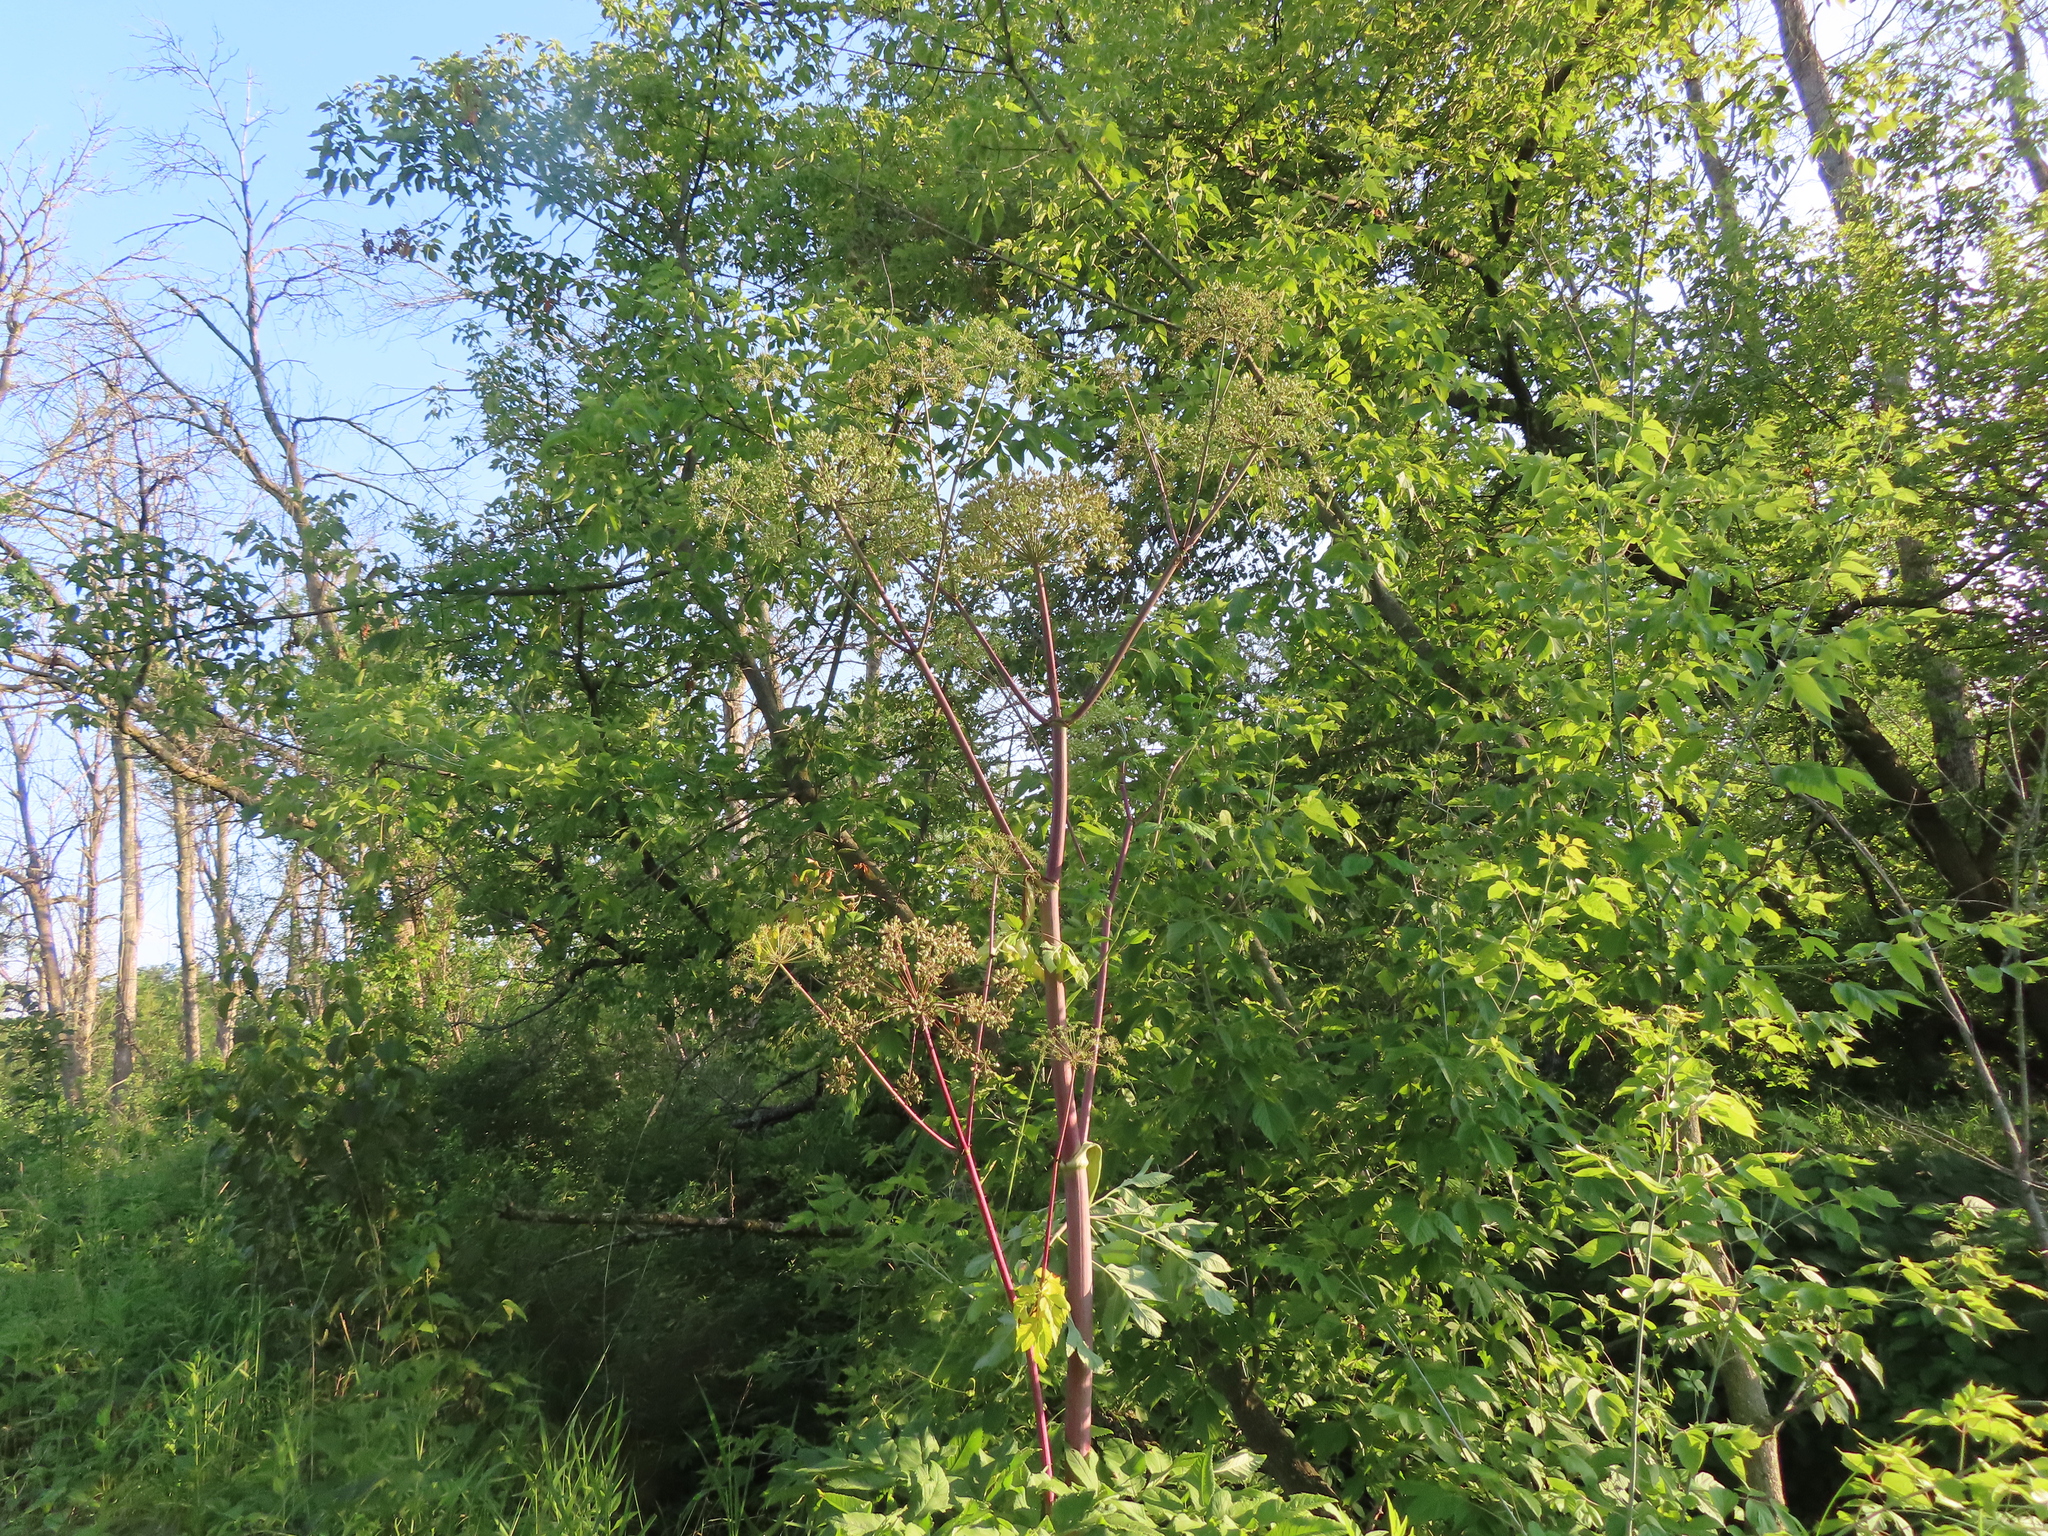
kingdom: Plantae
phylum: Tracheophyta
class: Magnoliopsida
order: Apiales
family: Apiaceae
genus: Angelica
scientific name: Angelica atropurpurea
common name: Great angelica
